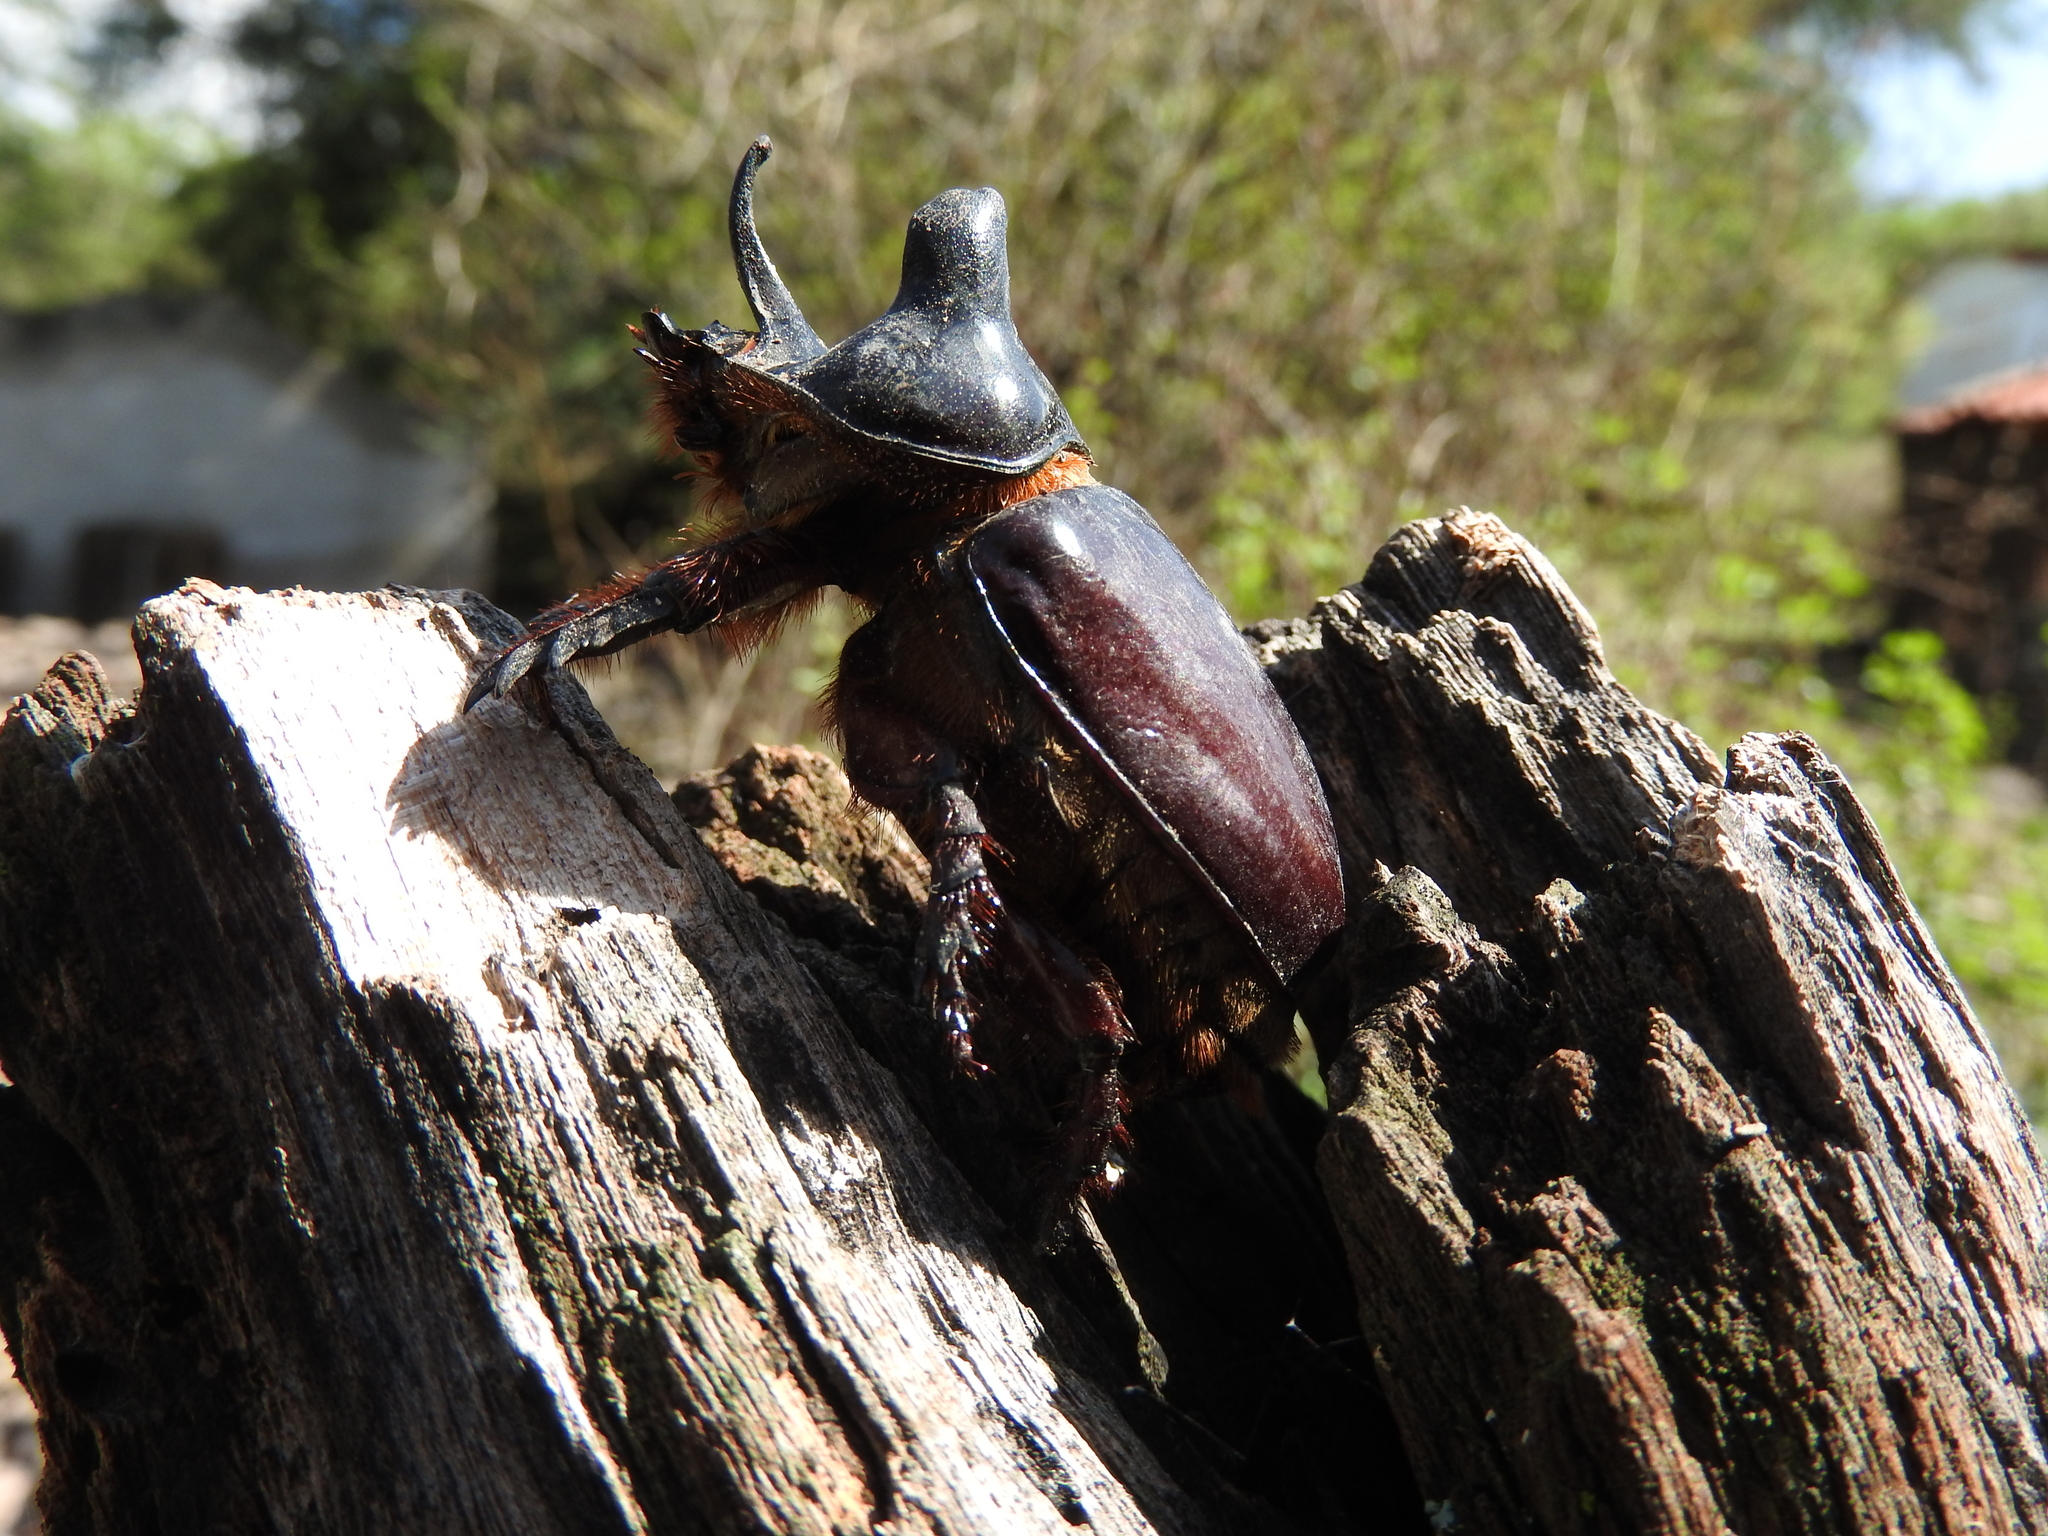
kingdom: Animalia
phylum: Arthropoda
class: Insecta
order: Coleoptera
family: Scarabaeidae
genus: Strategus
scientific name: Strategus aloeus
